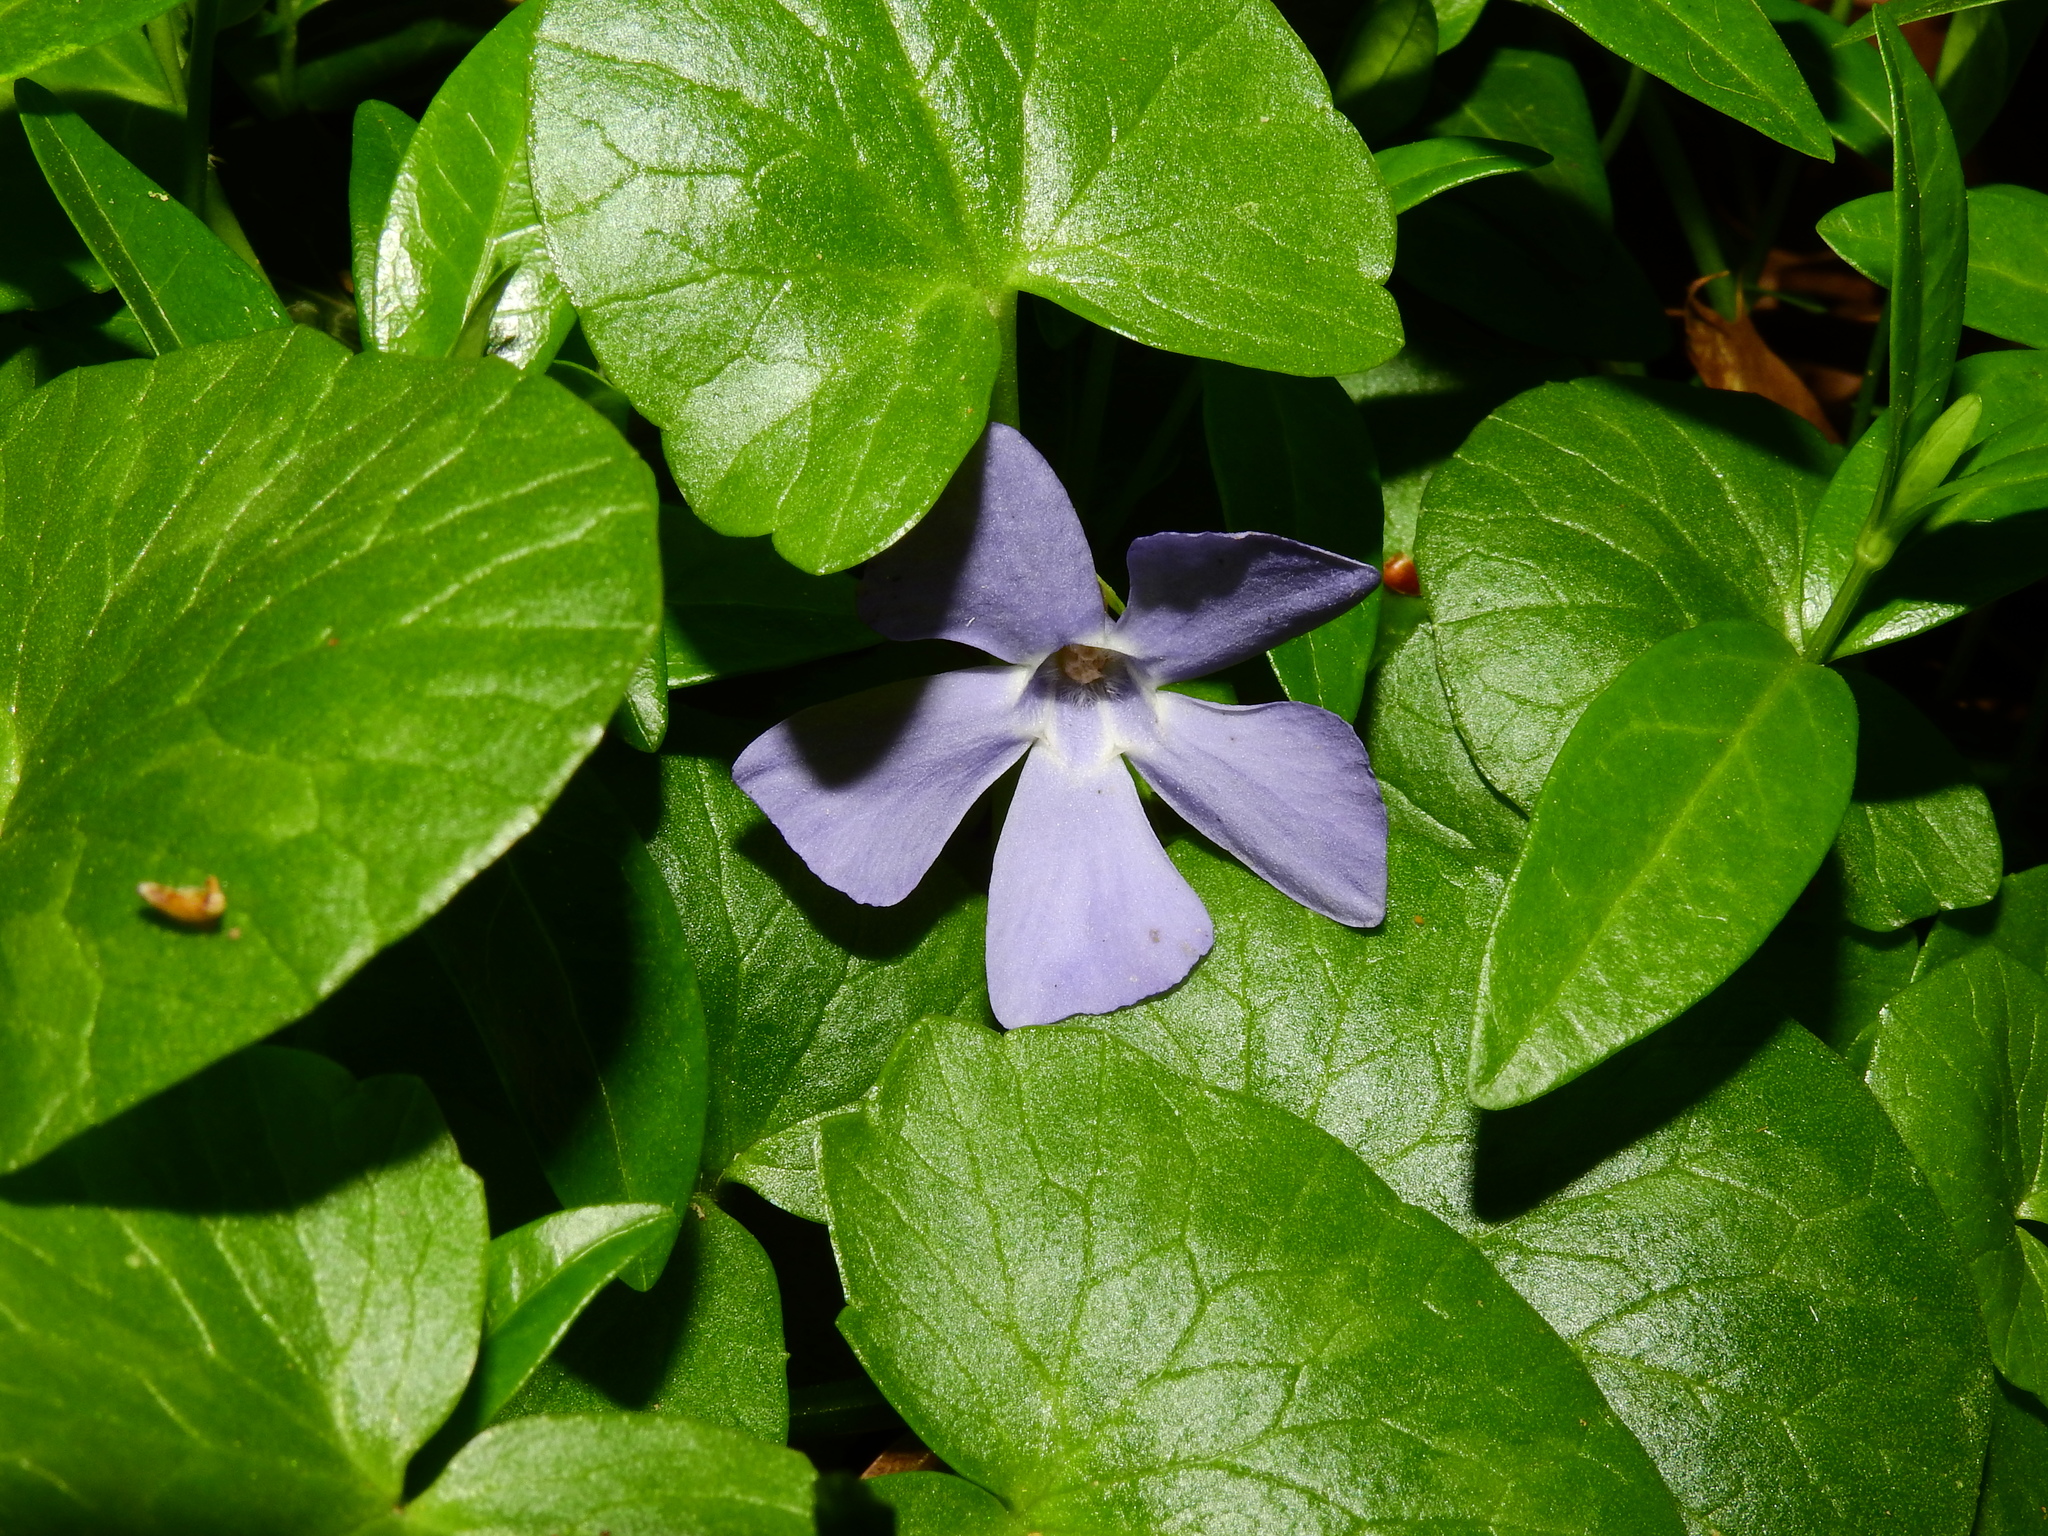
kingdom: Plantae
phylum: Tracheophyta
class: Magnoliopsida
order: Gentianales
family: Apocynaceae
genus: Vinca
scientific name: Vinca minor
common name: Lesser periwinkle
